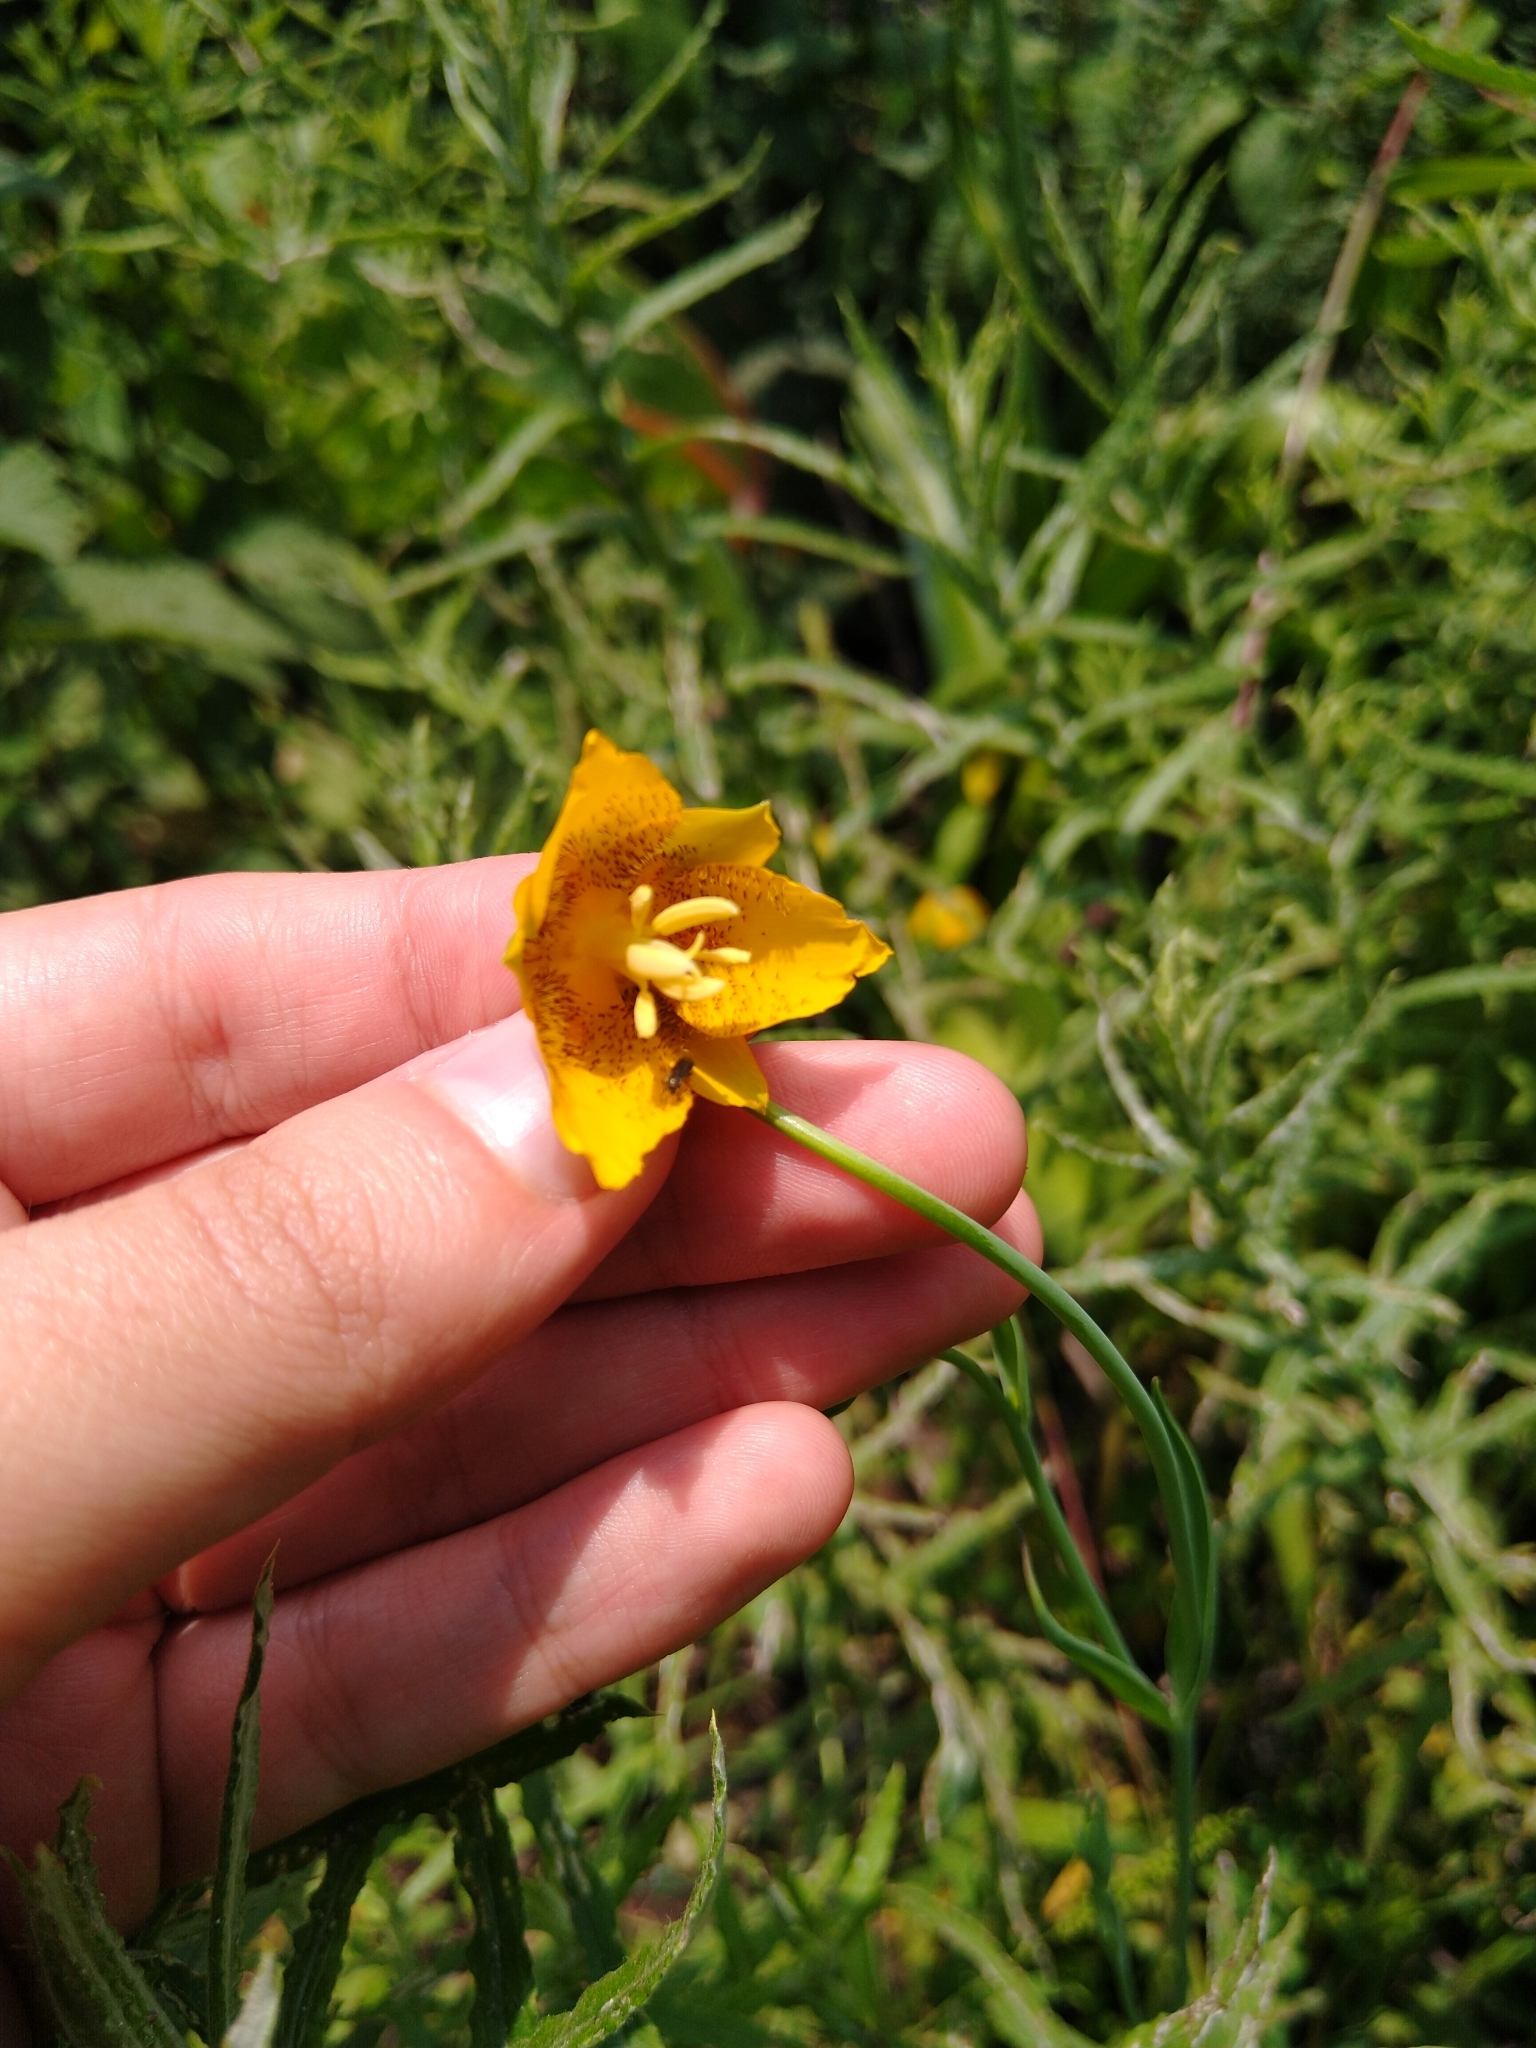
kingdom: Plantae
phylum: Tracheophyta
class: Liliopsida
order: Liliales
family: Liliaceae
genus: Calochortus
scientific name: Calochortus barbatus
